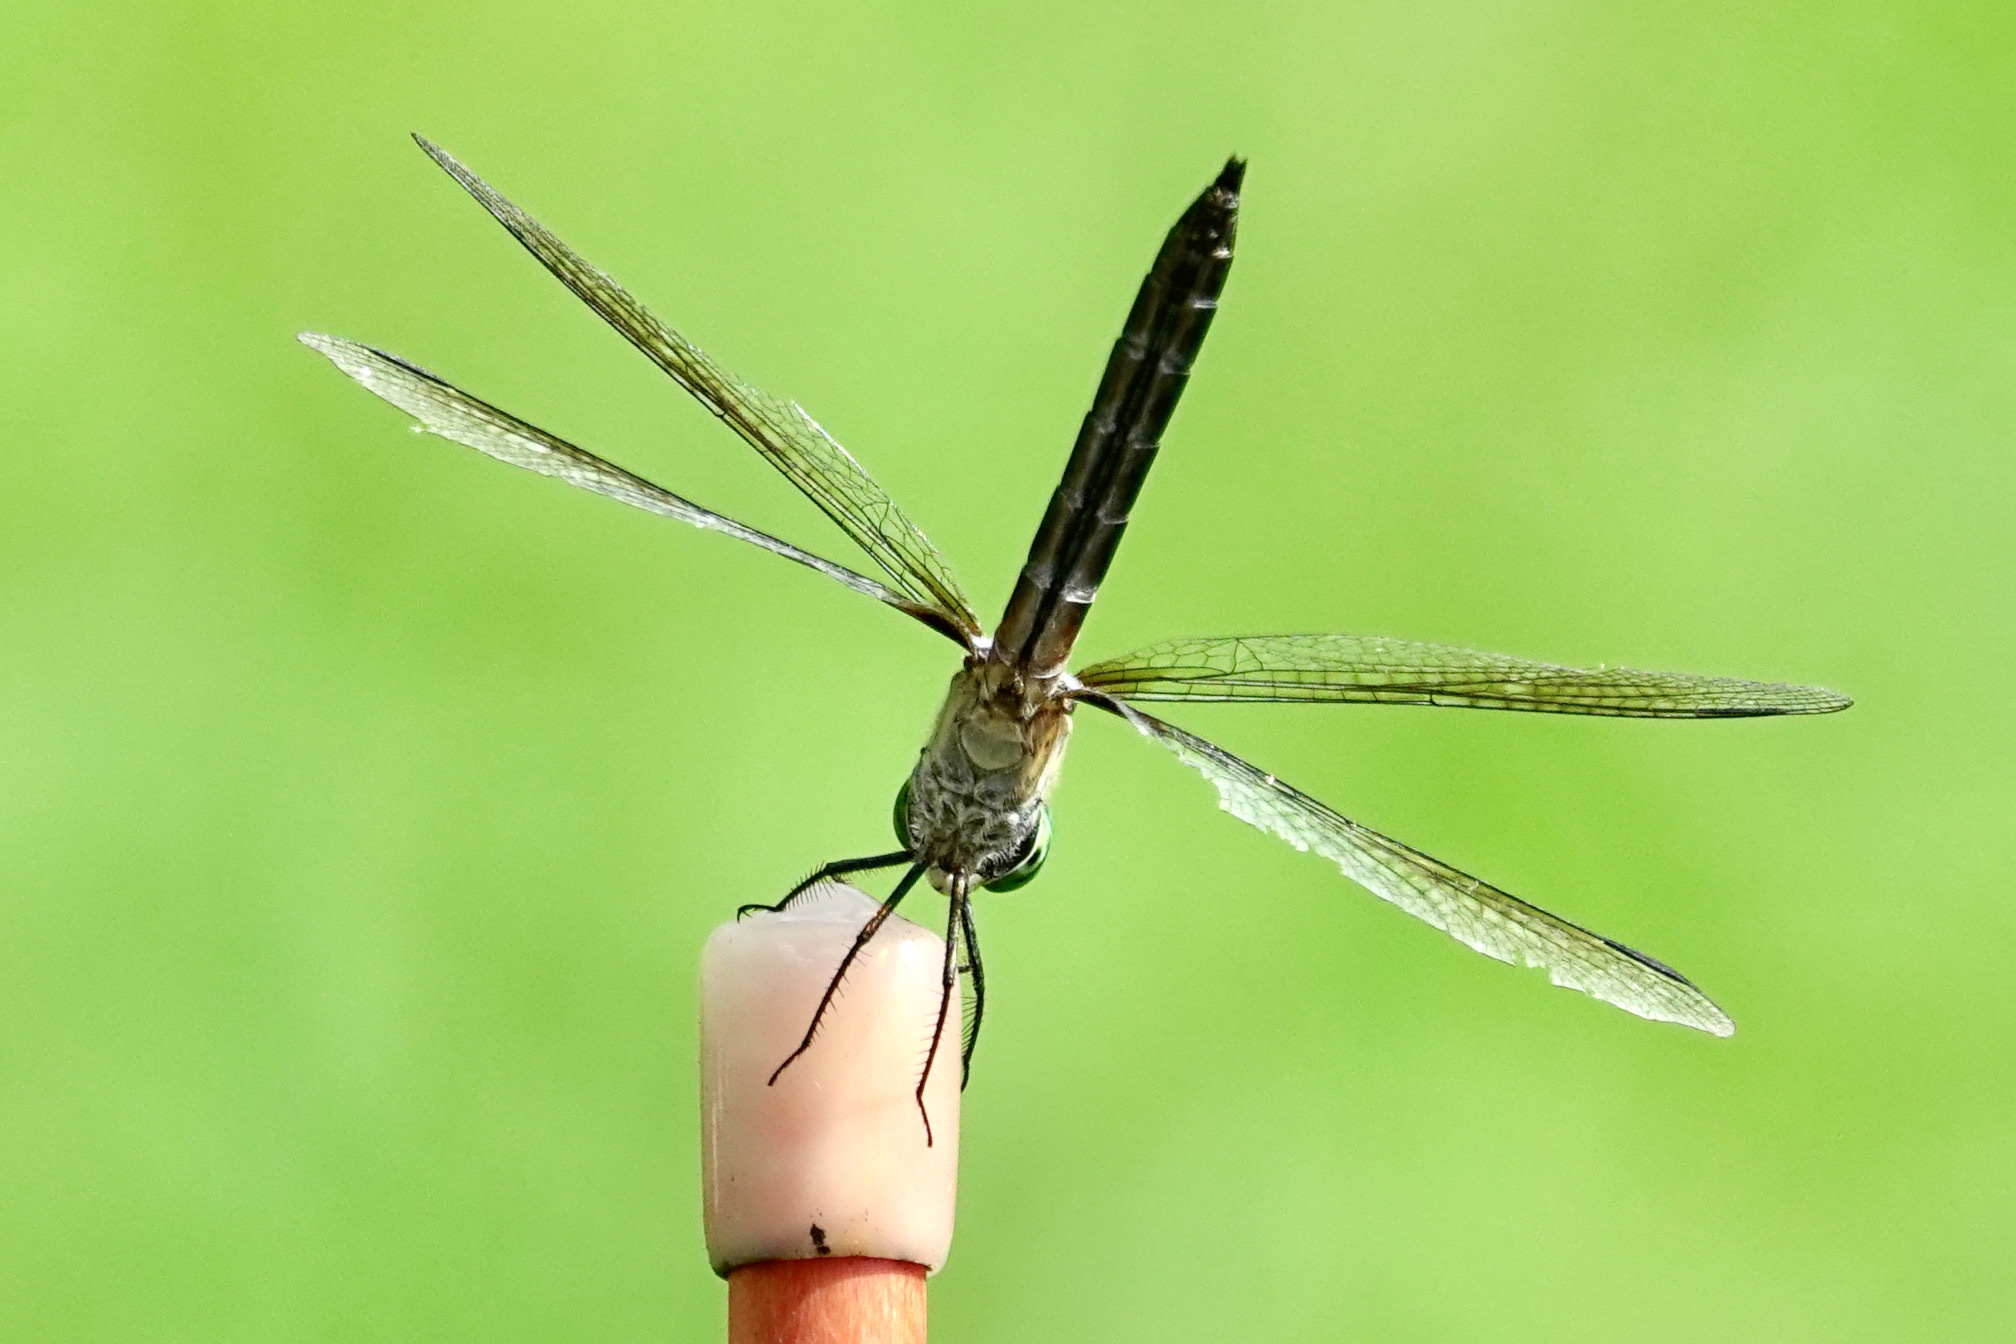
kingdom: Animalia
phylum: Arthropoda
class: Insecta
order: Odonata
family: Libellulidae
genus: Pachydiplax
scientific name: Pachydiplax longipennis
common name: Blue dasher
